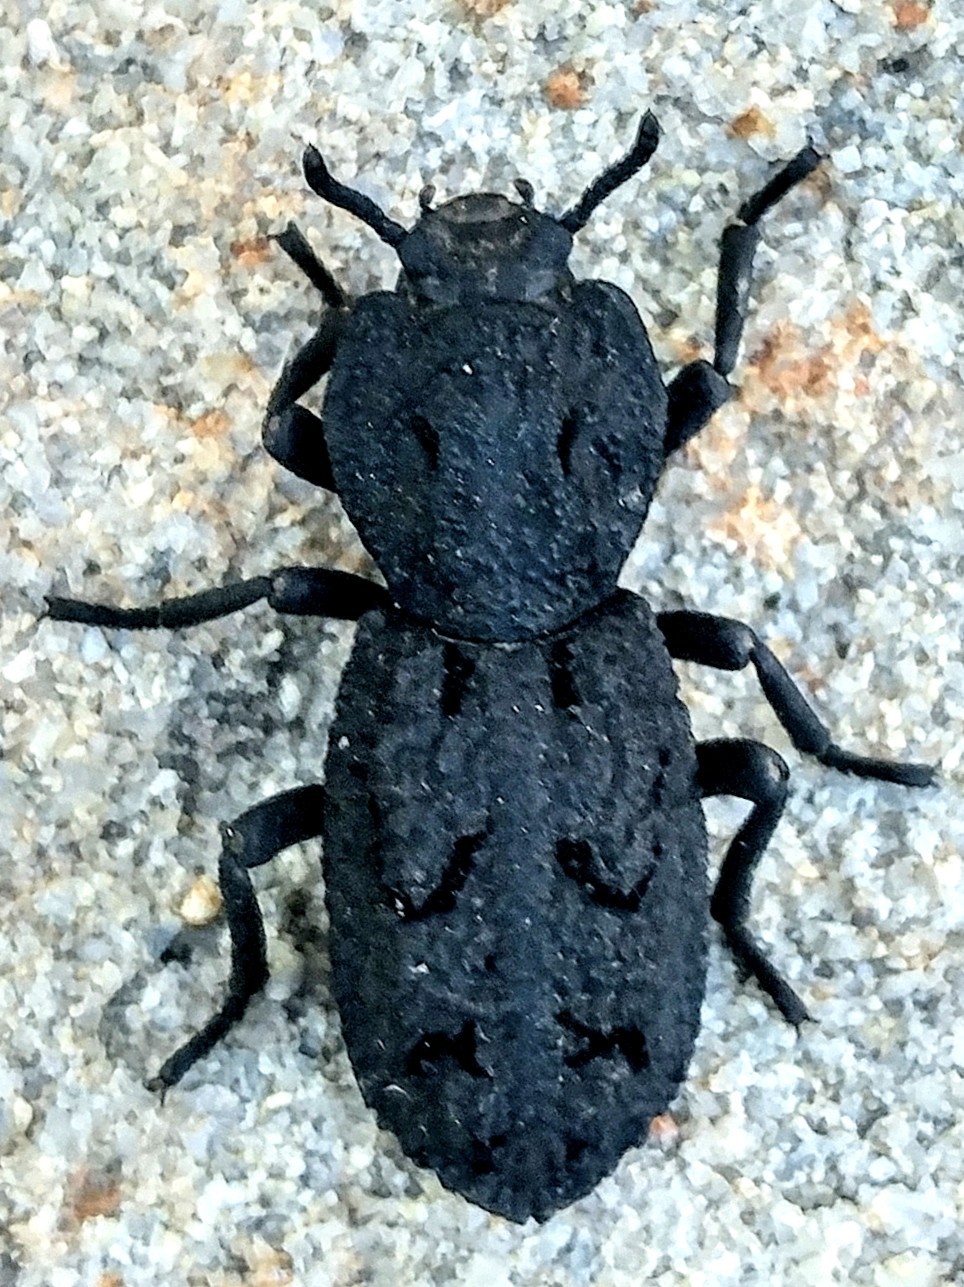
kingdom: Animalia
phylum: Arthropoda
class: Insecta
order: Coleoptera
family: Zopheridae
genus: Phloeodes
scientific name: Phloeodes diabolicus
